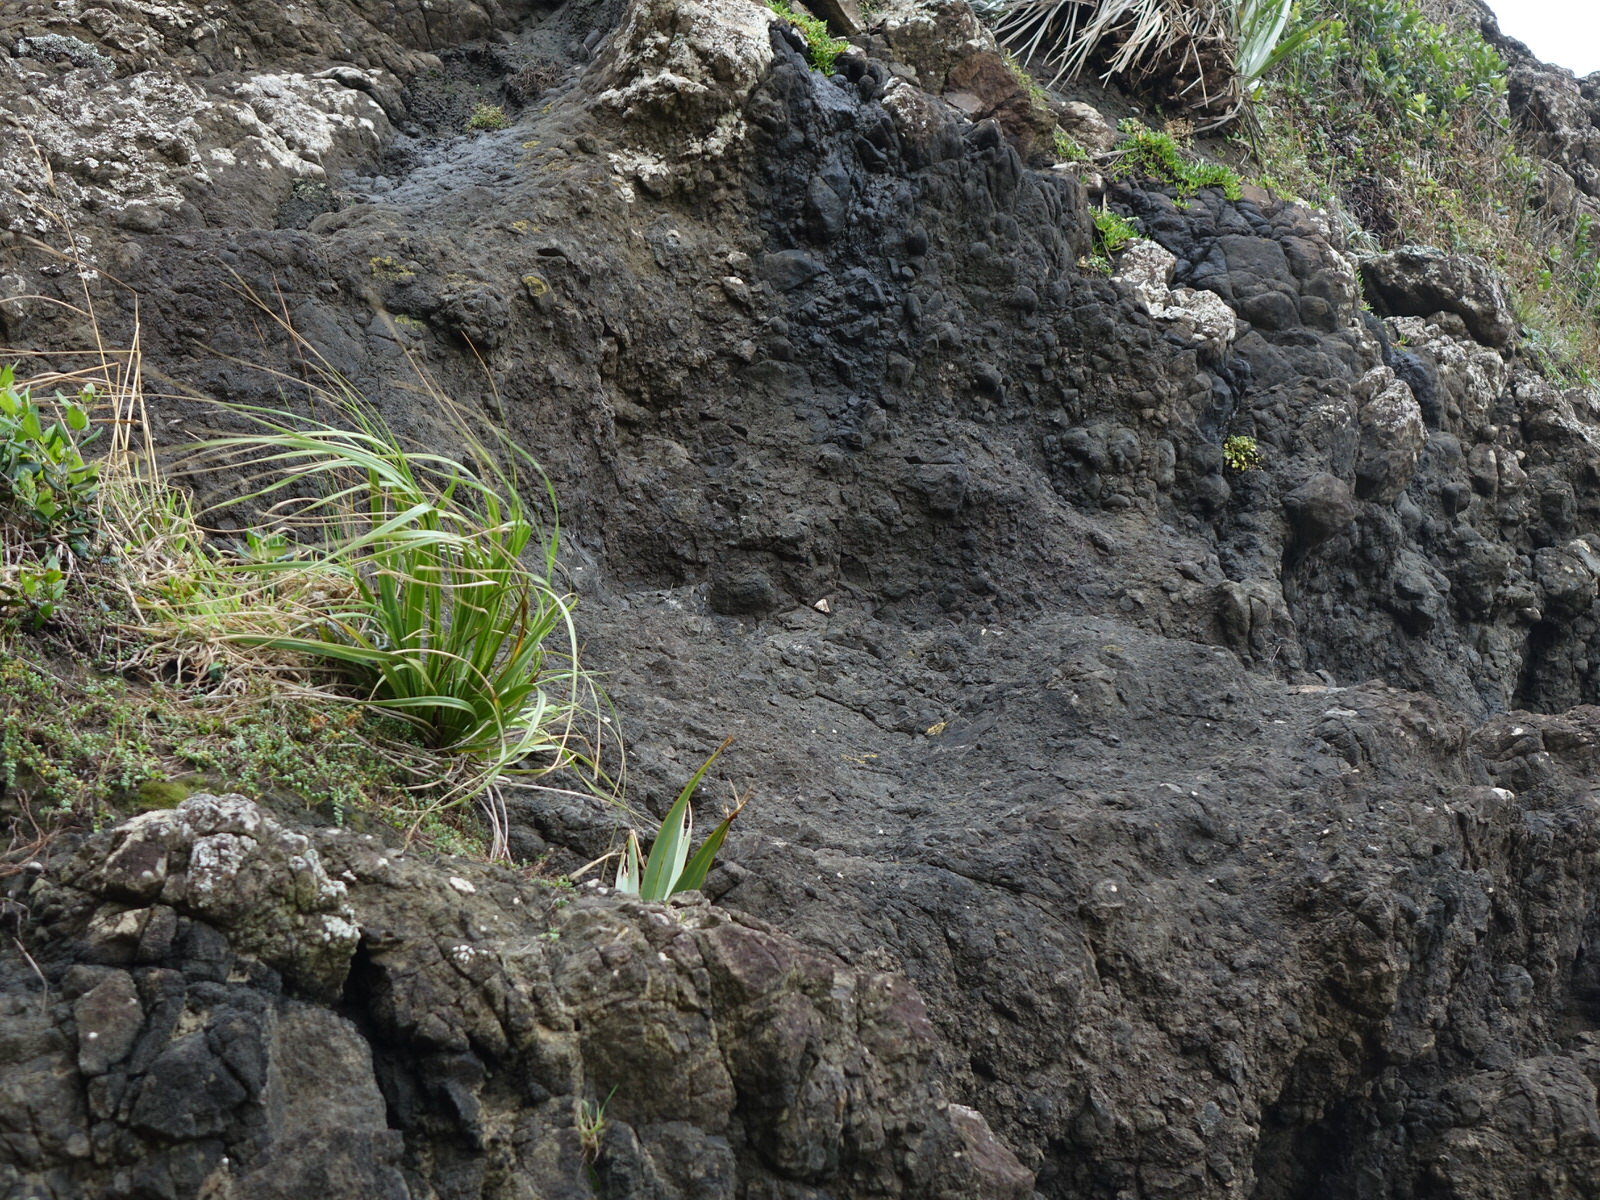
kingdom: Animalia
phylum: Arthropoda
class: Insecta
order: Lepidoptera
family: Erebidae
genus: Achaea
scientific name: Achaea janata
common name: Croton caterpillar
